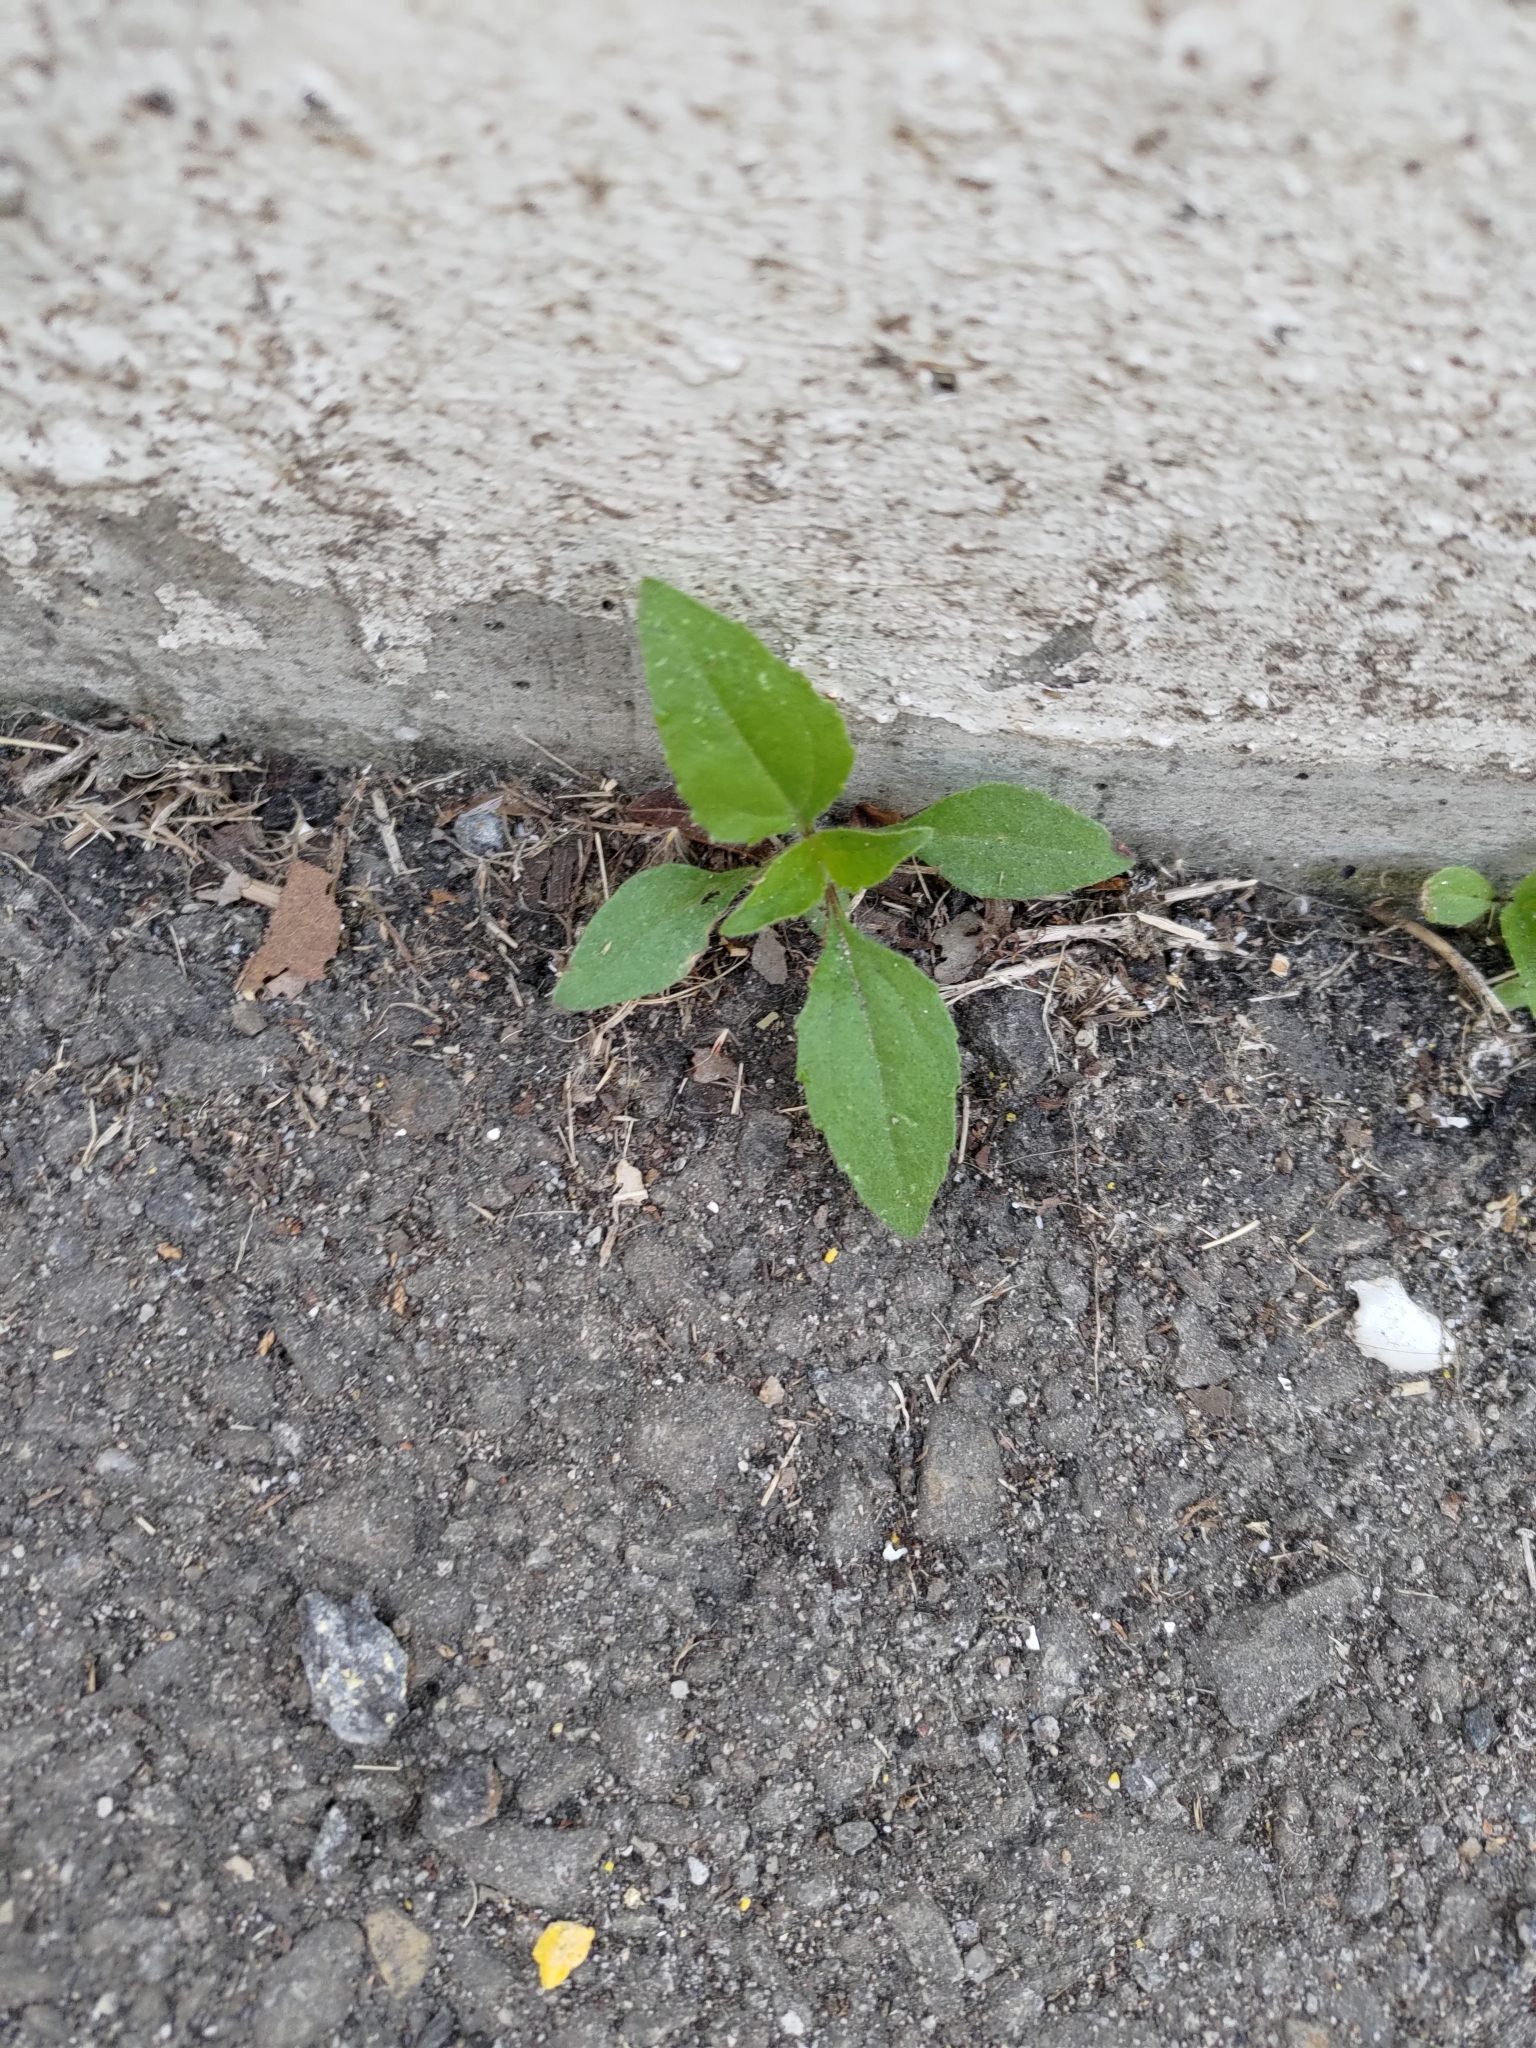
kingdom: Plantae
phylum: Tracheophyta
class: Magnoliopsida
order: Asterales
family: Asteraceae
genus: Tridax
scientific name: Tridax procumbens
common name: Coatbuttons
